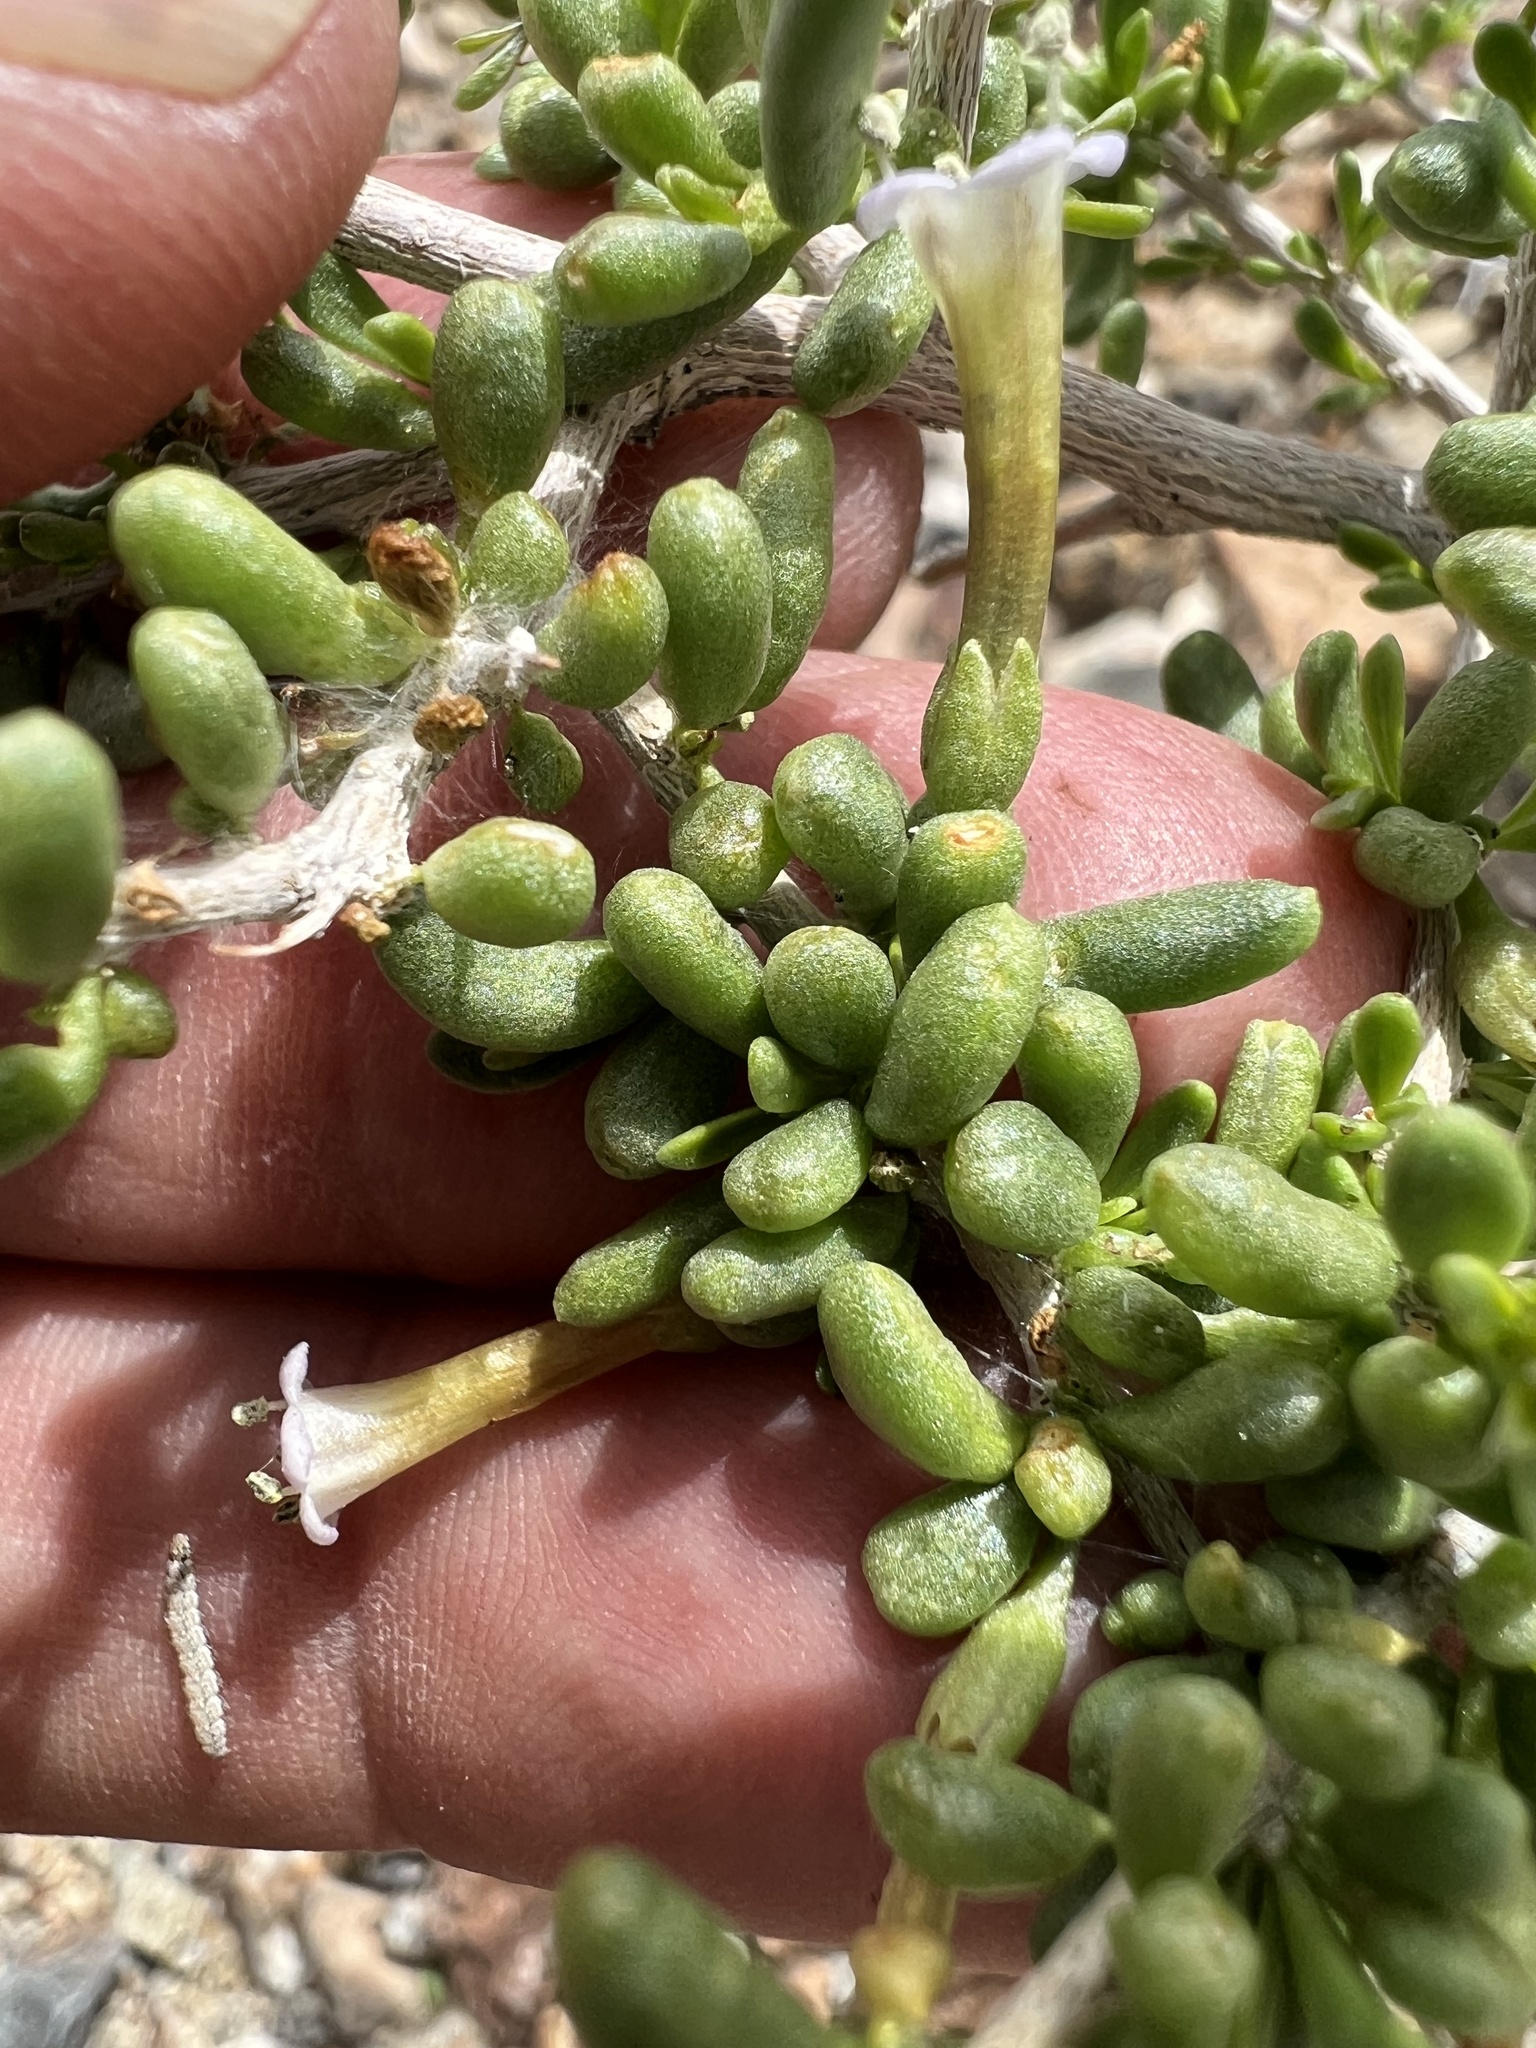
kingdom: Plantae
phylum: Tracheophyta
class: Magnoliopsida
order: Solanales
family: Solanaceae
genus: Lycium
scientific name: Lycium andersonii
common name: Water-jacket
